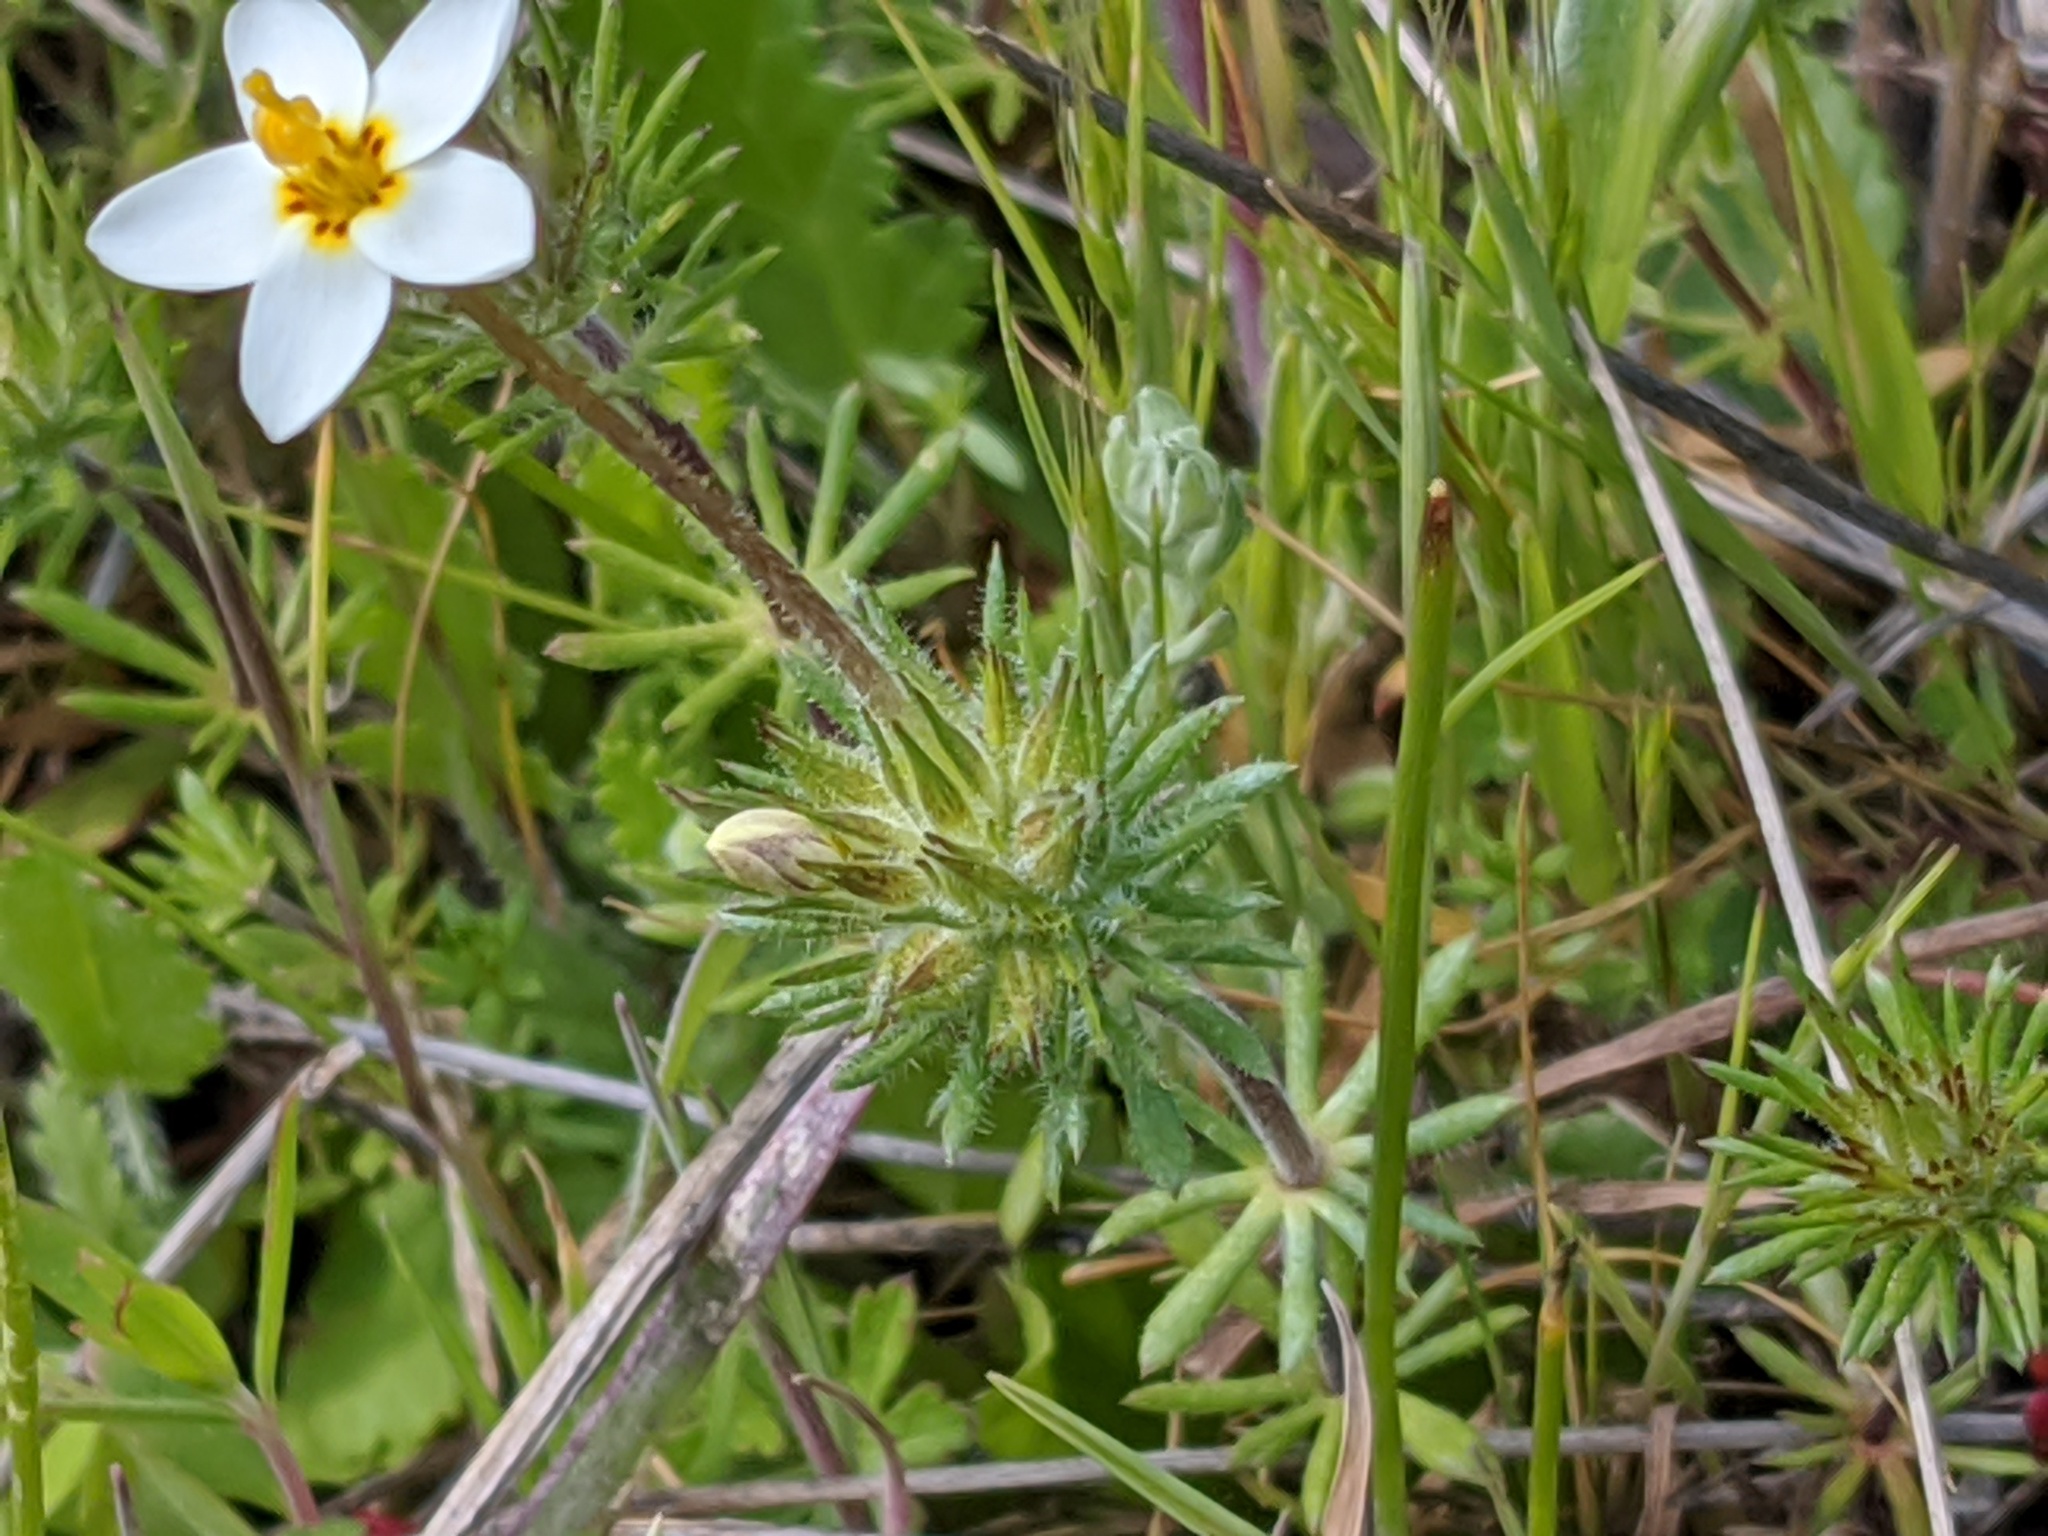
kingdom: Plantae
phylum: Tracheophyta
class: Magnoliopsida
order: Ericales
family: Polemoniaceae
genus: Leptosiphon
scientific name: Leptosiphon parviflorus
